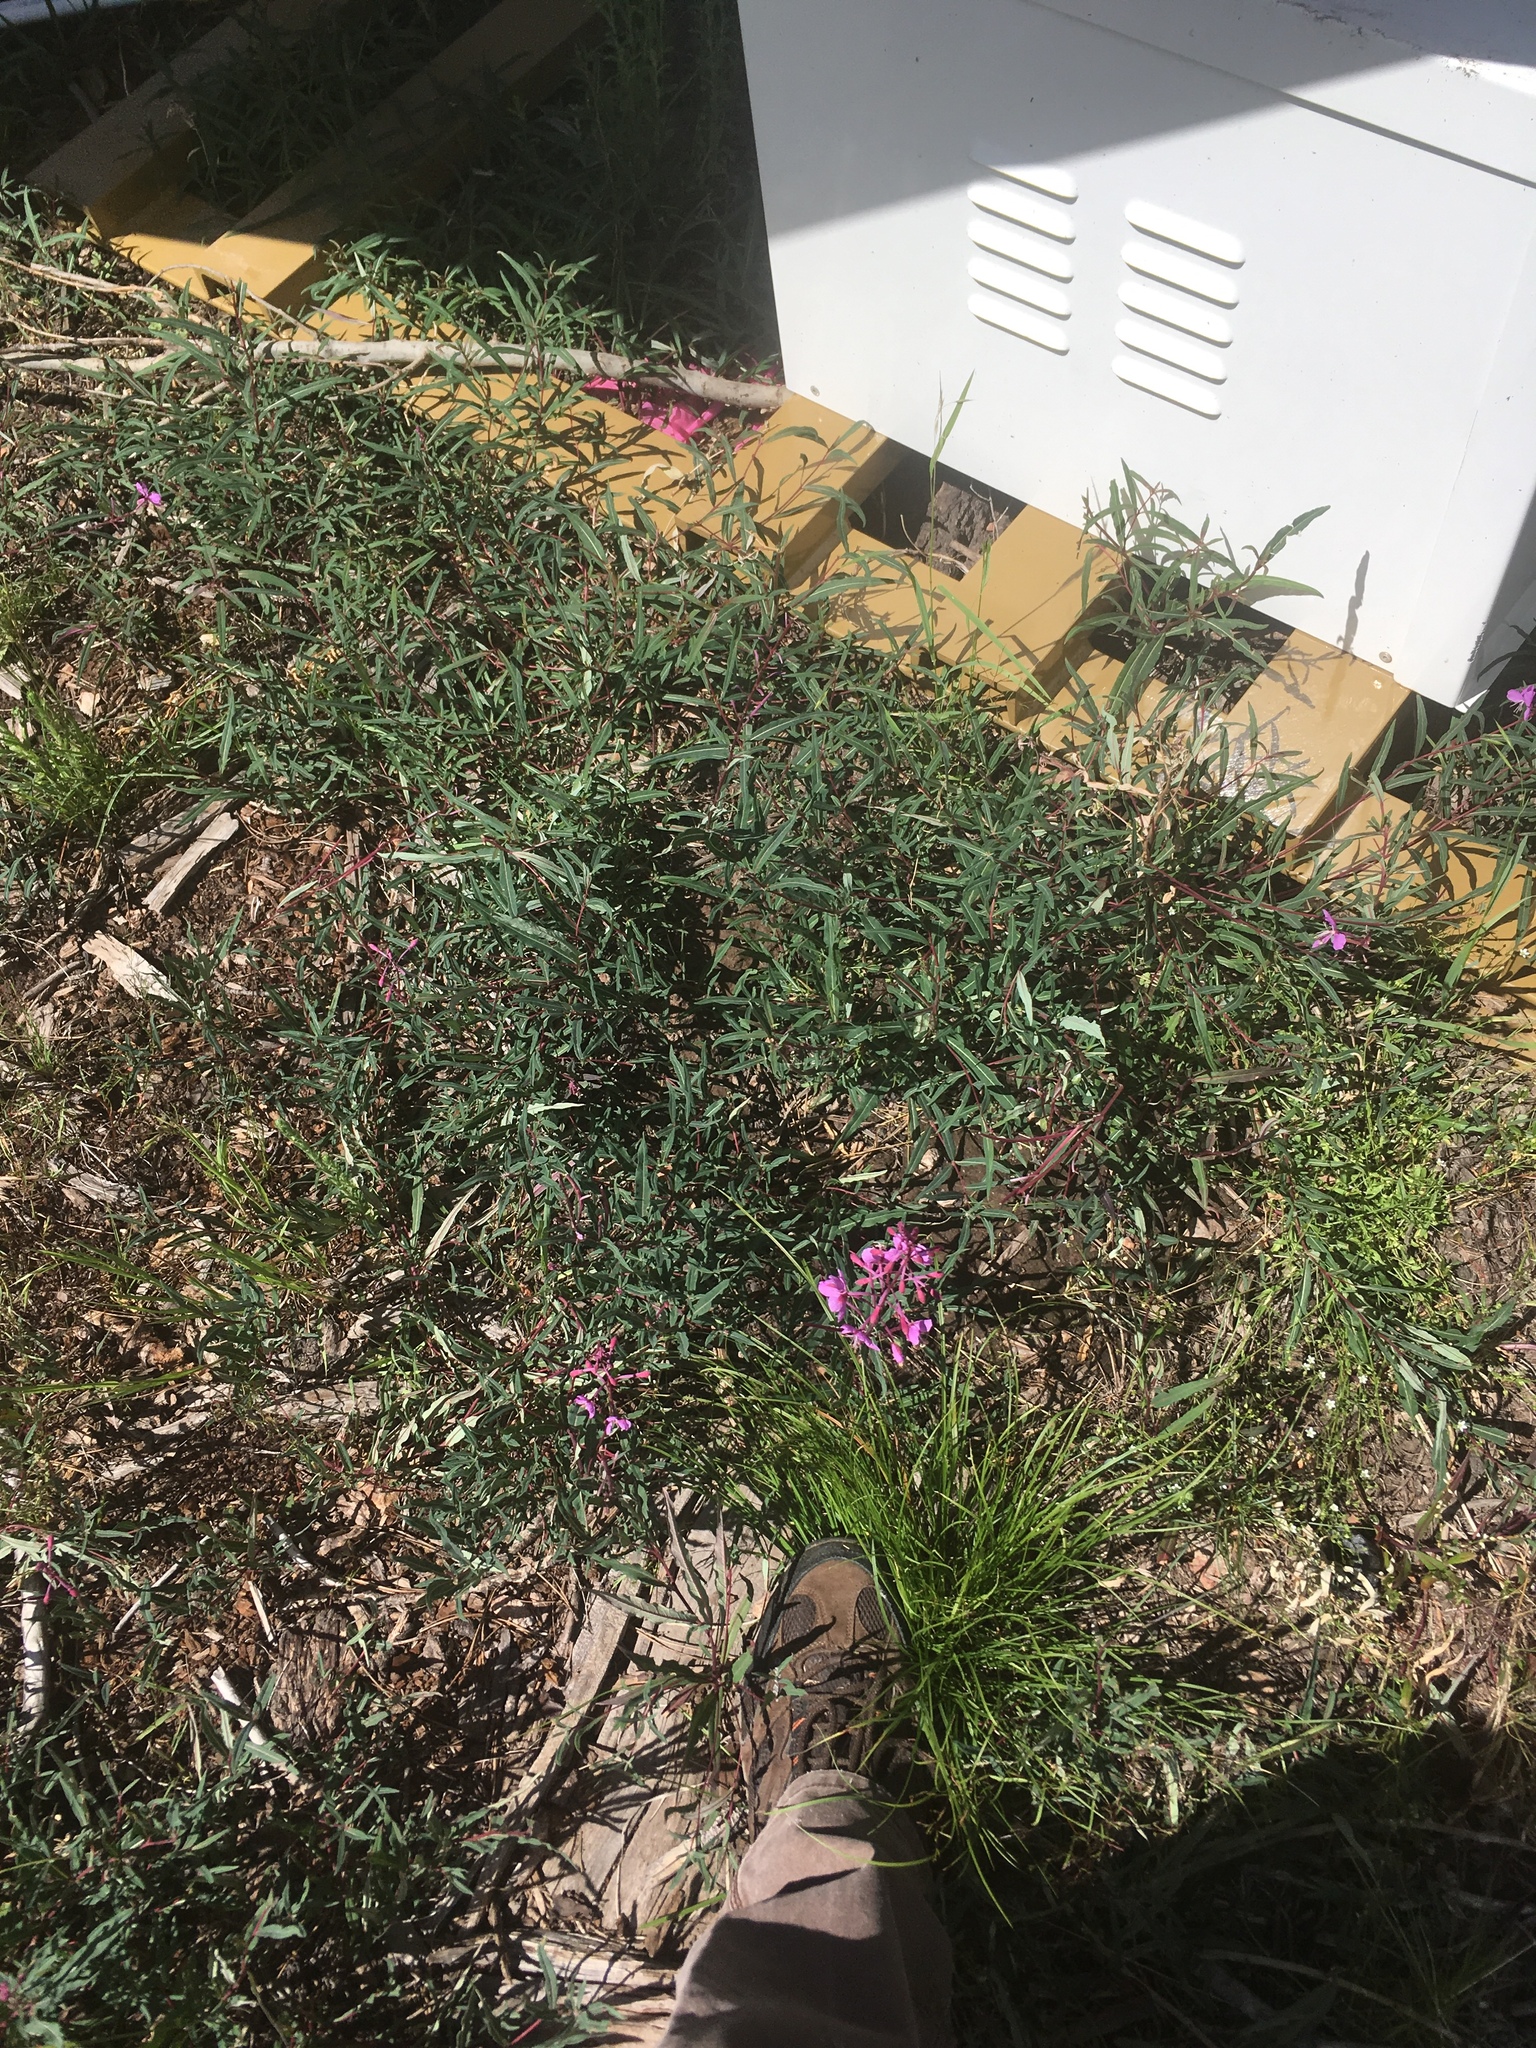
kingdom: Plantae
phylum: Tracheophyta
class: Magnoliopsida
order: Myrtales
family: Onagraceae
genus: Chamaenerion
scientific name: Chamaenerion angustifolium
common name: Fireweed
